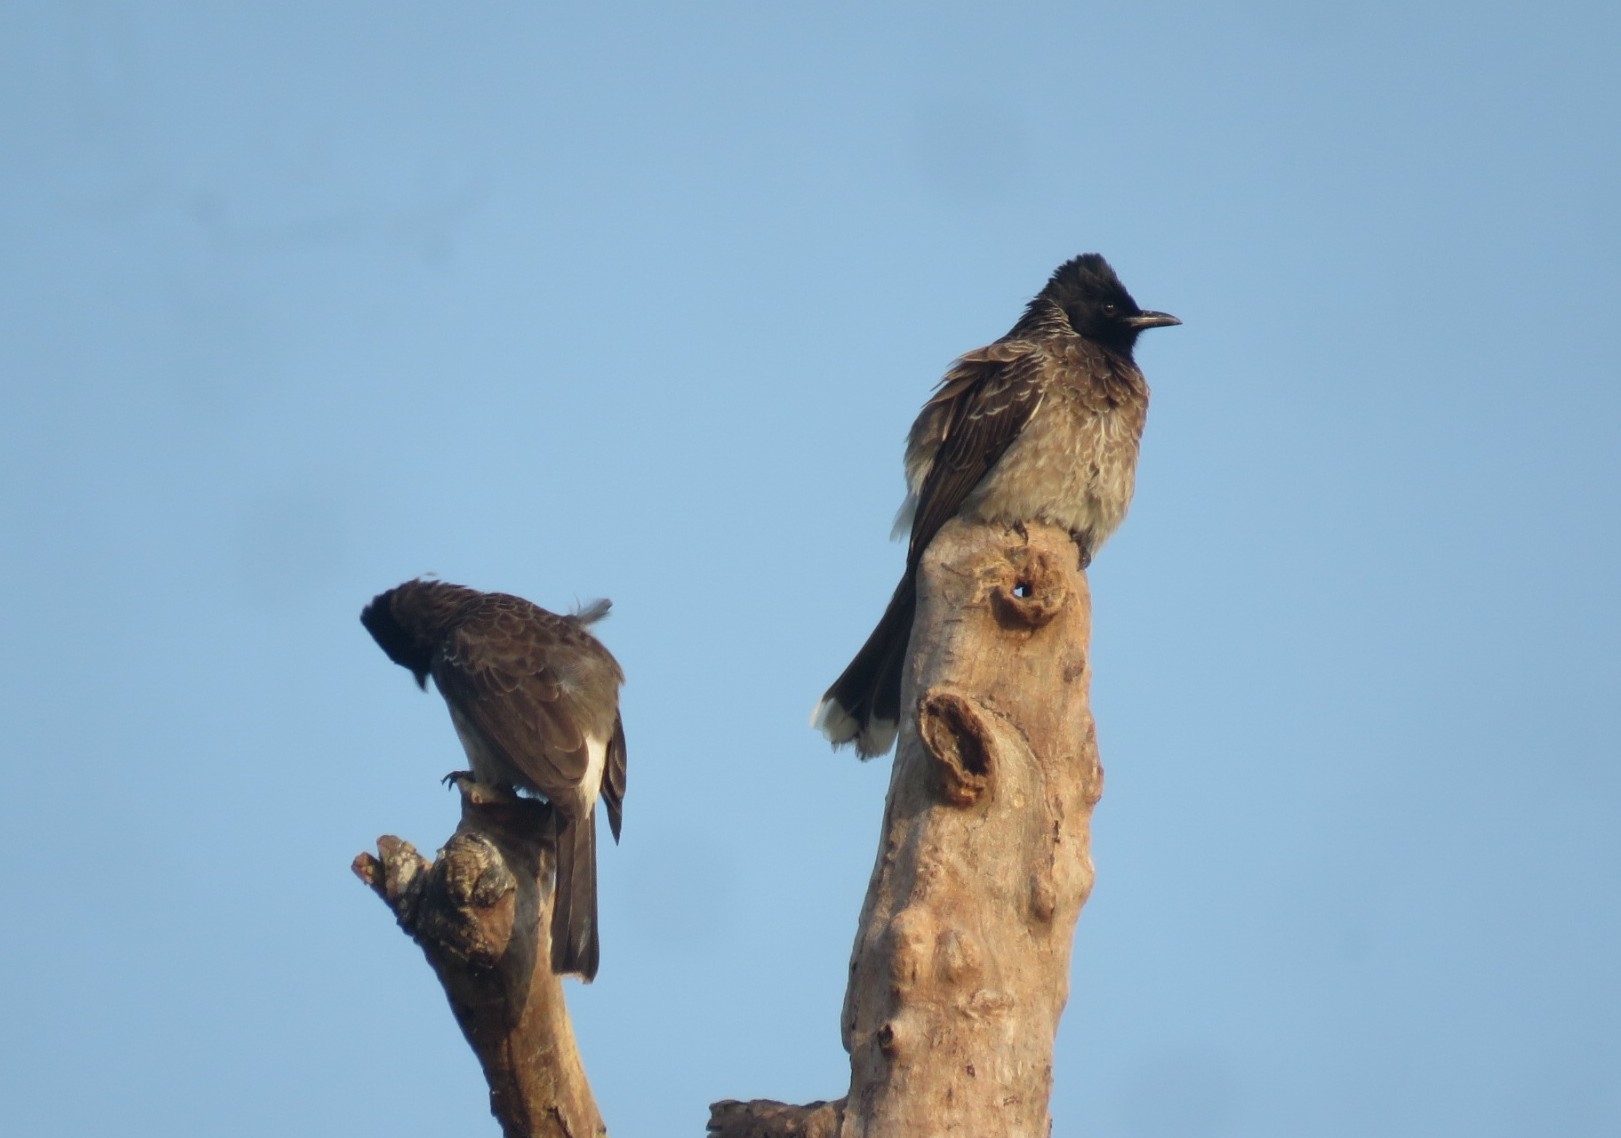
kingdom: Animalia
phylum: Chordata
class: Aves
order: Passeriformes
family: Pycnonotidae
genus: Pycnonotus
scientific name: Pycnonotus cafer
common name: Red-vented bulbul
